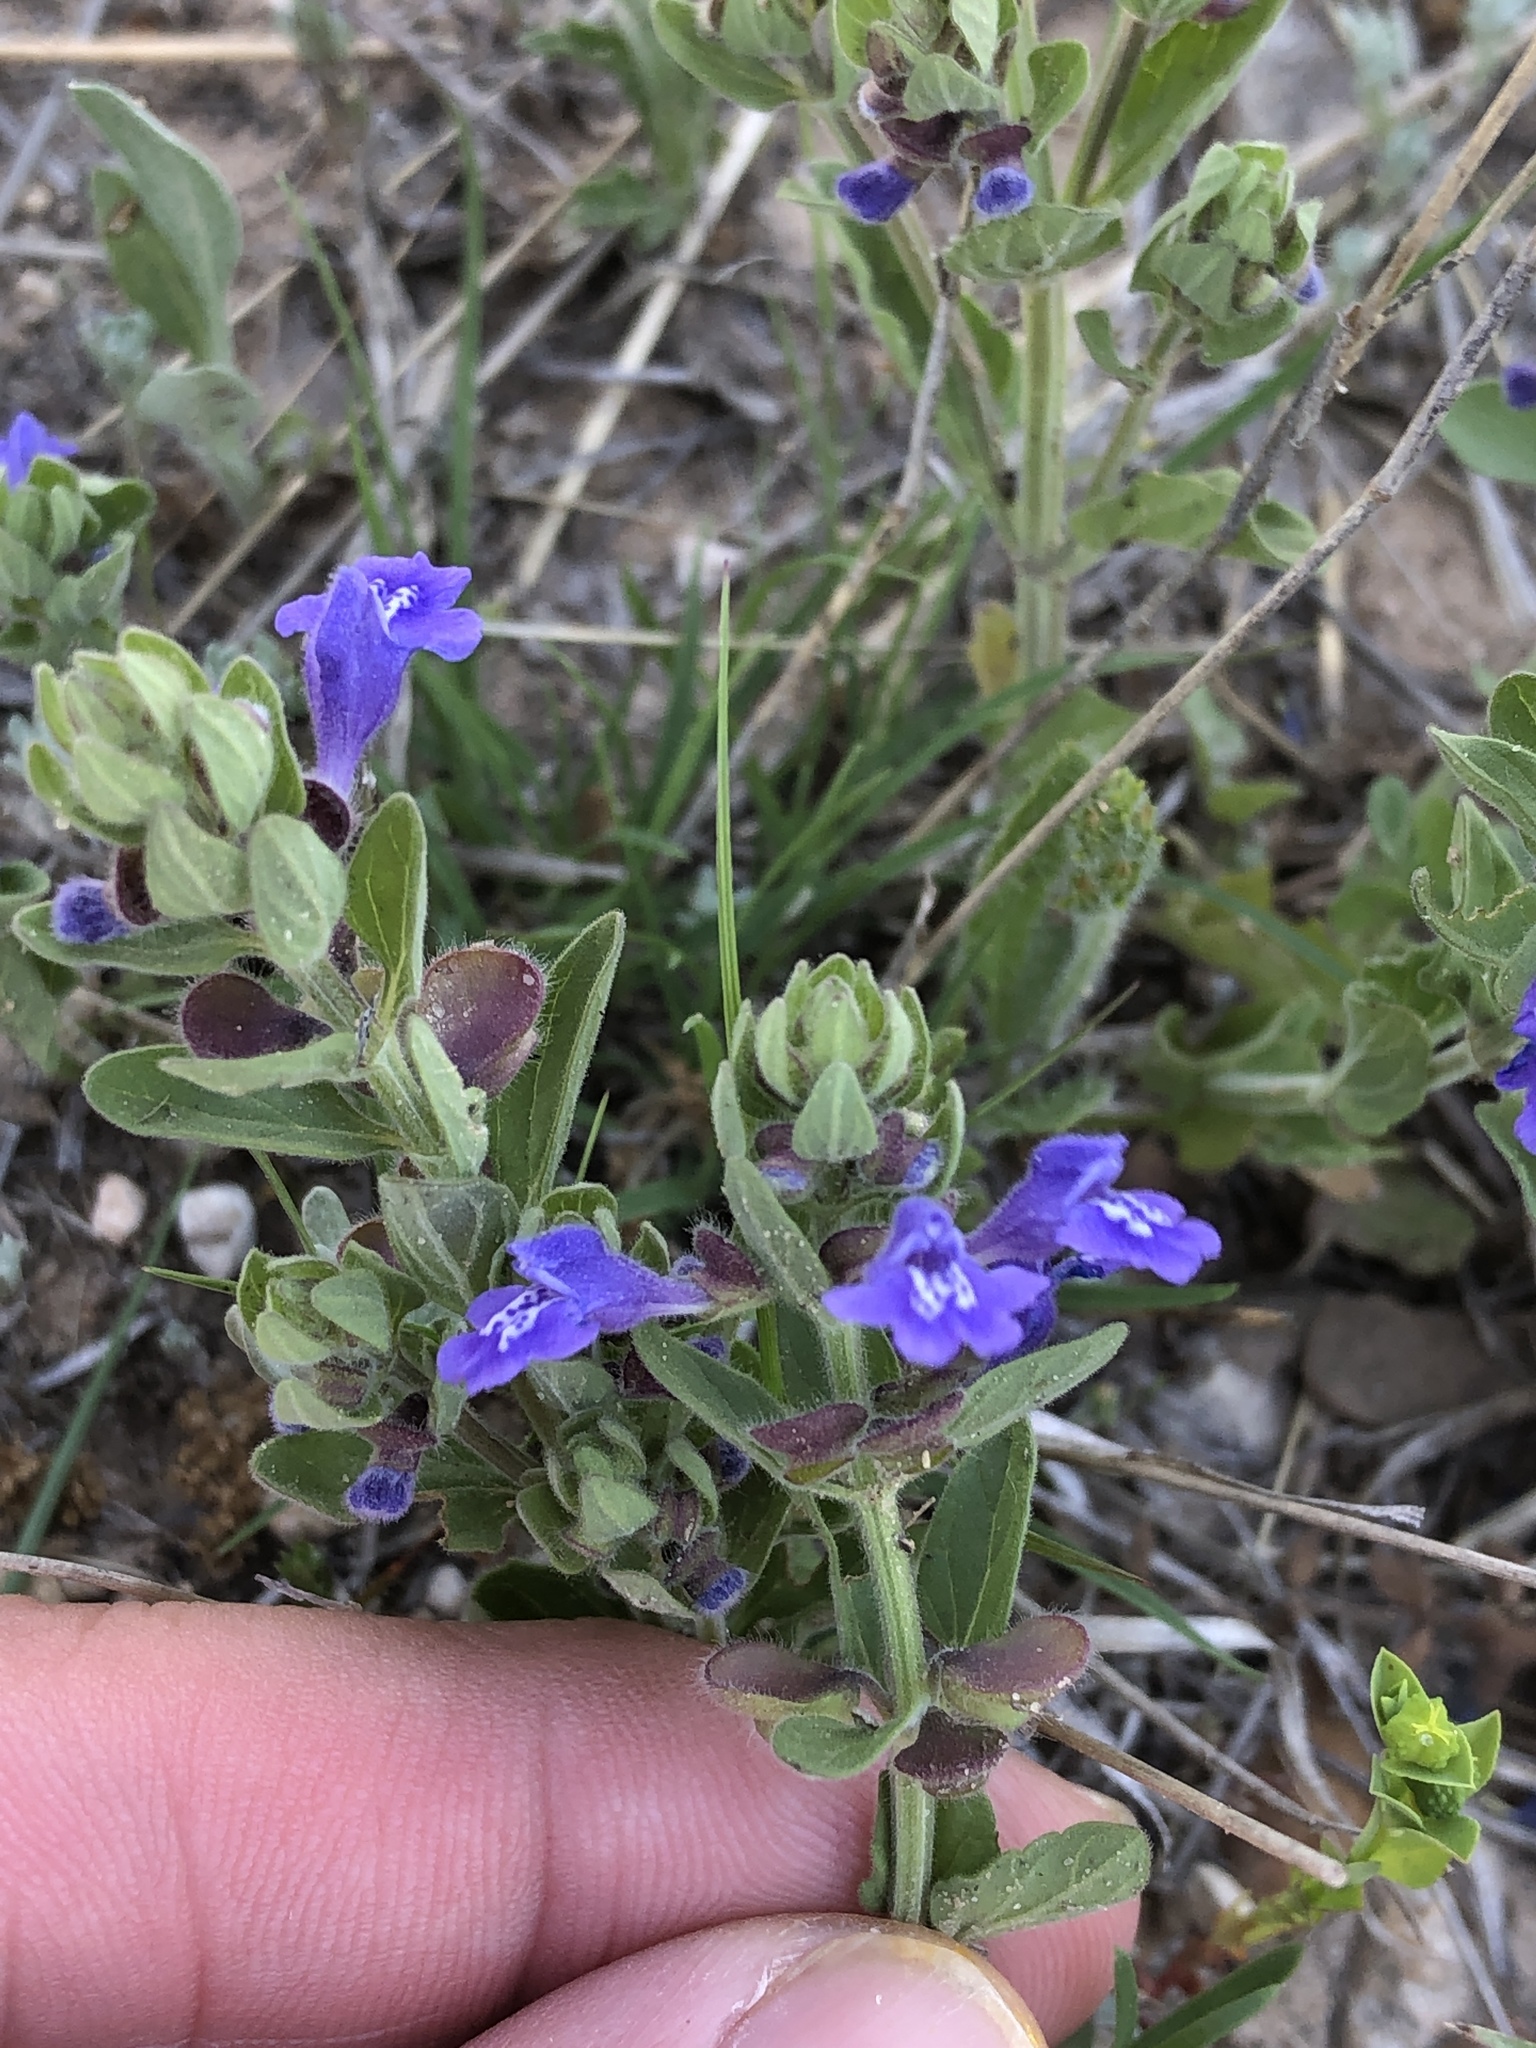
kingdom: Plantae
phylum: Tracheophyta
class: Magnoliopsida
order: Lamiales
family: Lamiaceae
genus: Scutellaria
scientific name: Scutellaria drummondii
